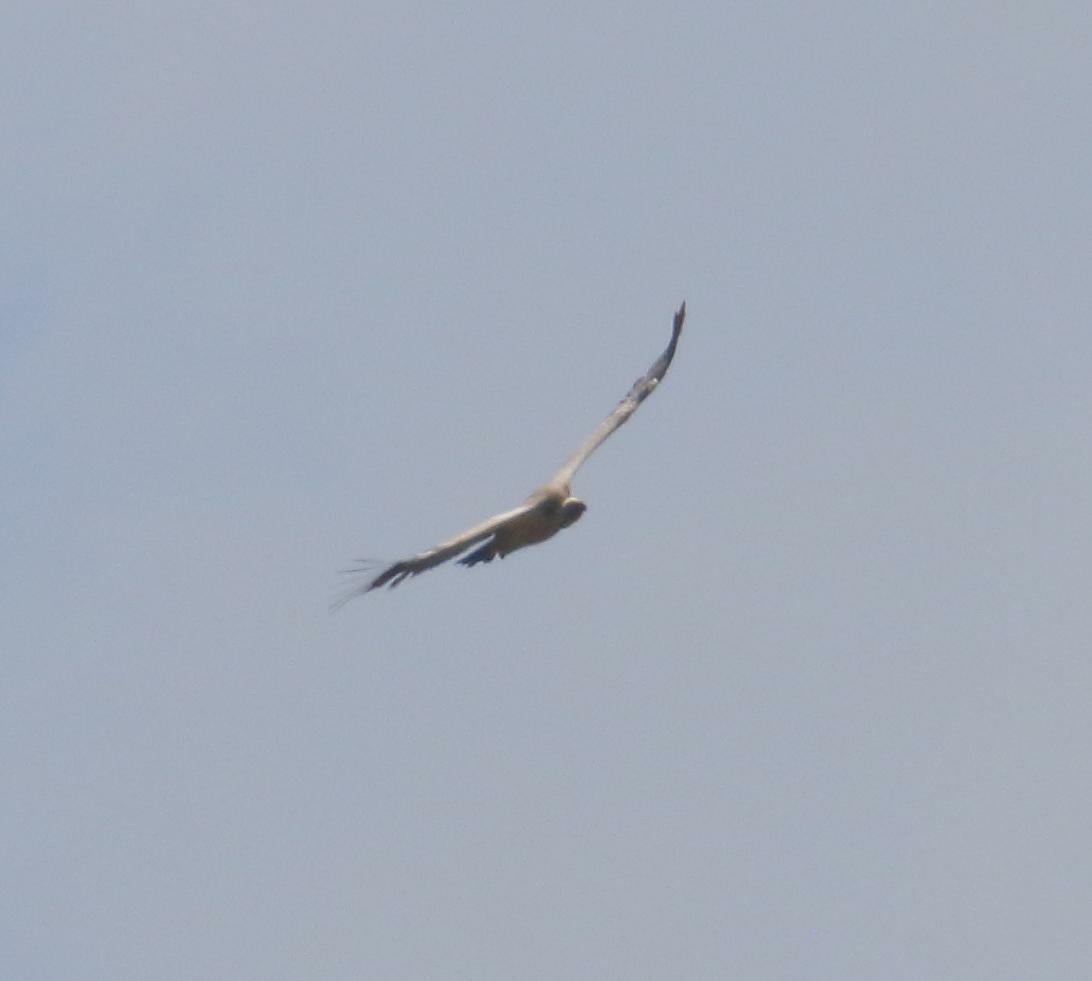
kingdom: Animalia
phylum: Chordata
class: Aves
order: Accipitriformes
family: Accipitridae
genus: Gyps
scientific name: Gyps coprotheres
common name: Cape vulture
